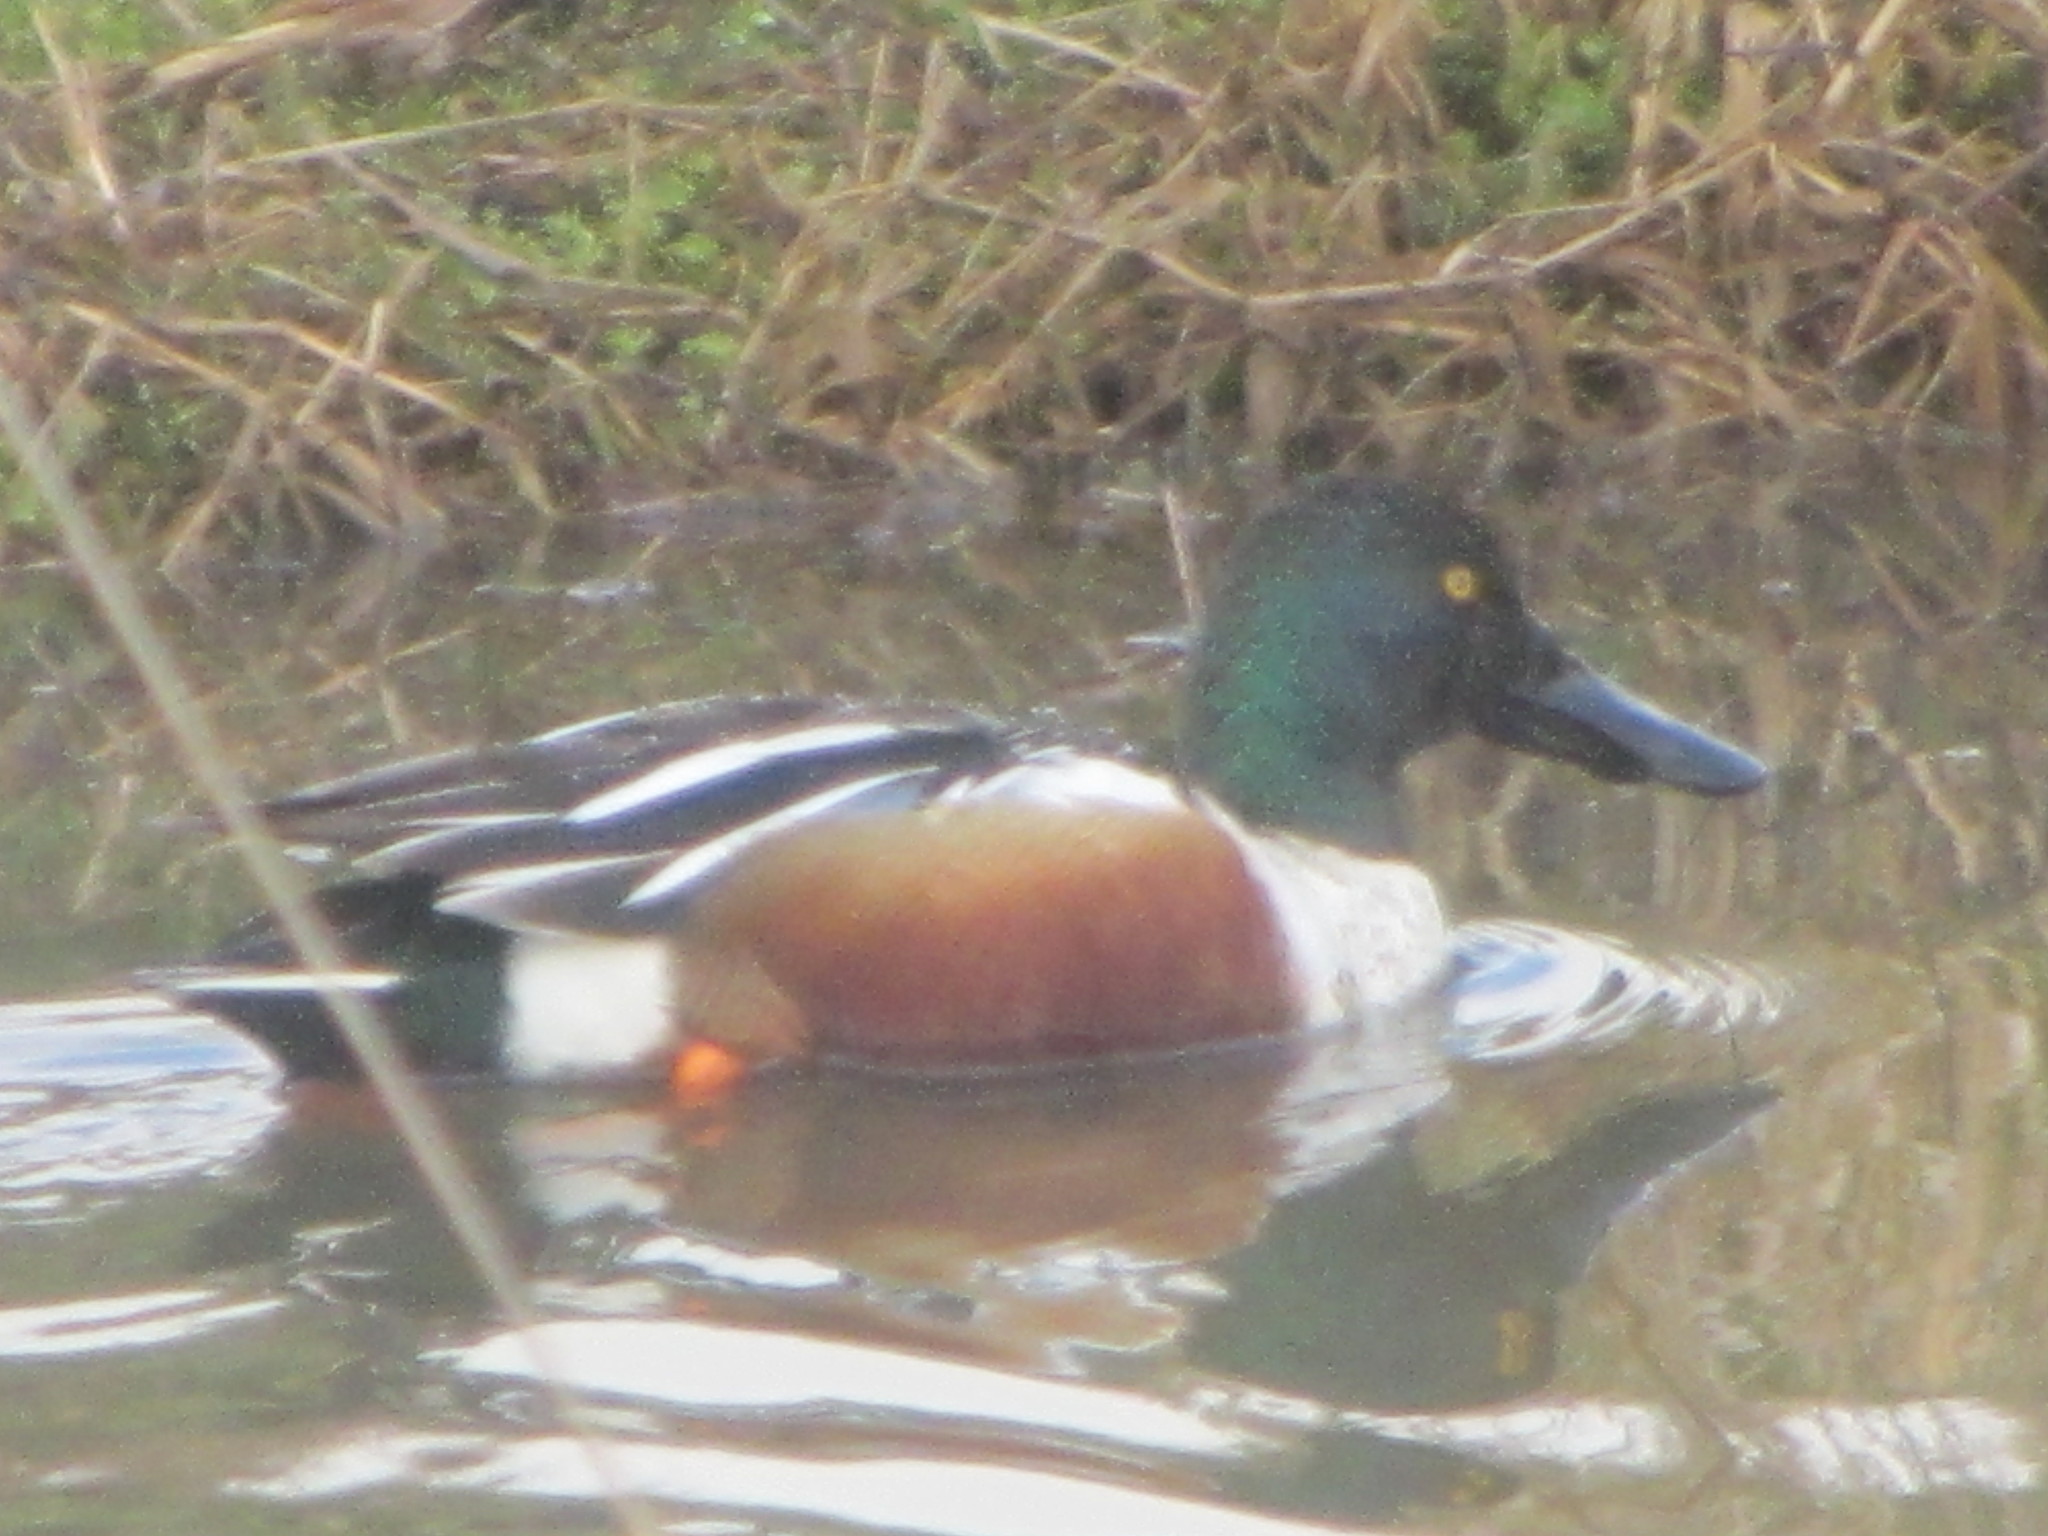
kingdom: Animalia
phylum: Chordata
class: Aves
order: Anseriformes
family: Anatidae
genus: Spatula
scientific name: Spatula clypeata
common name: Northern shoveler
